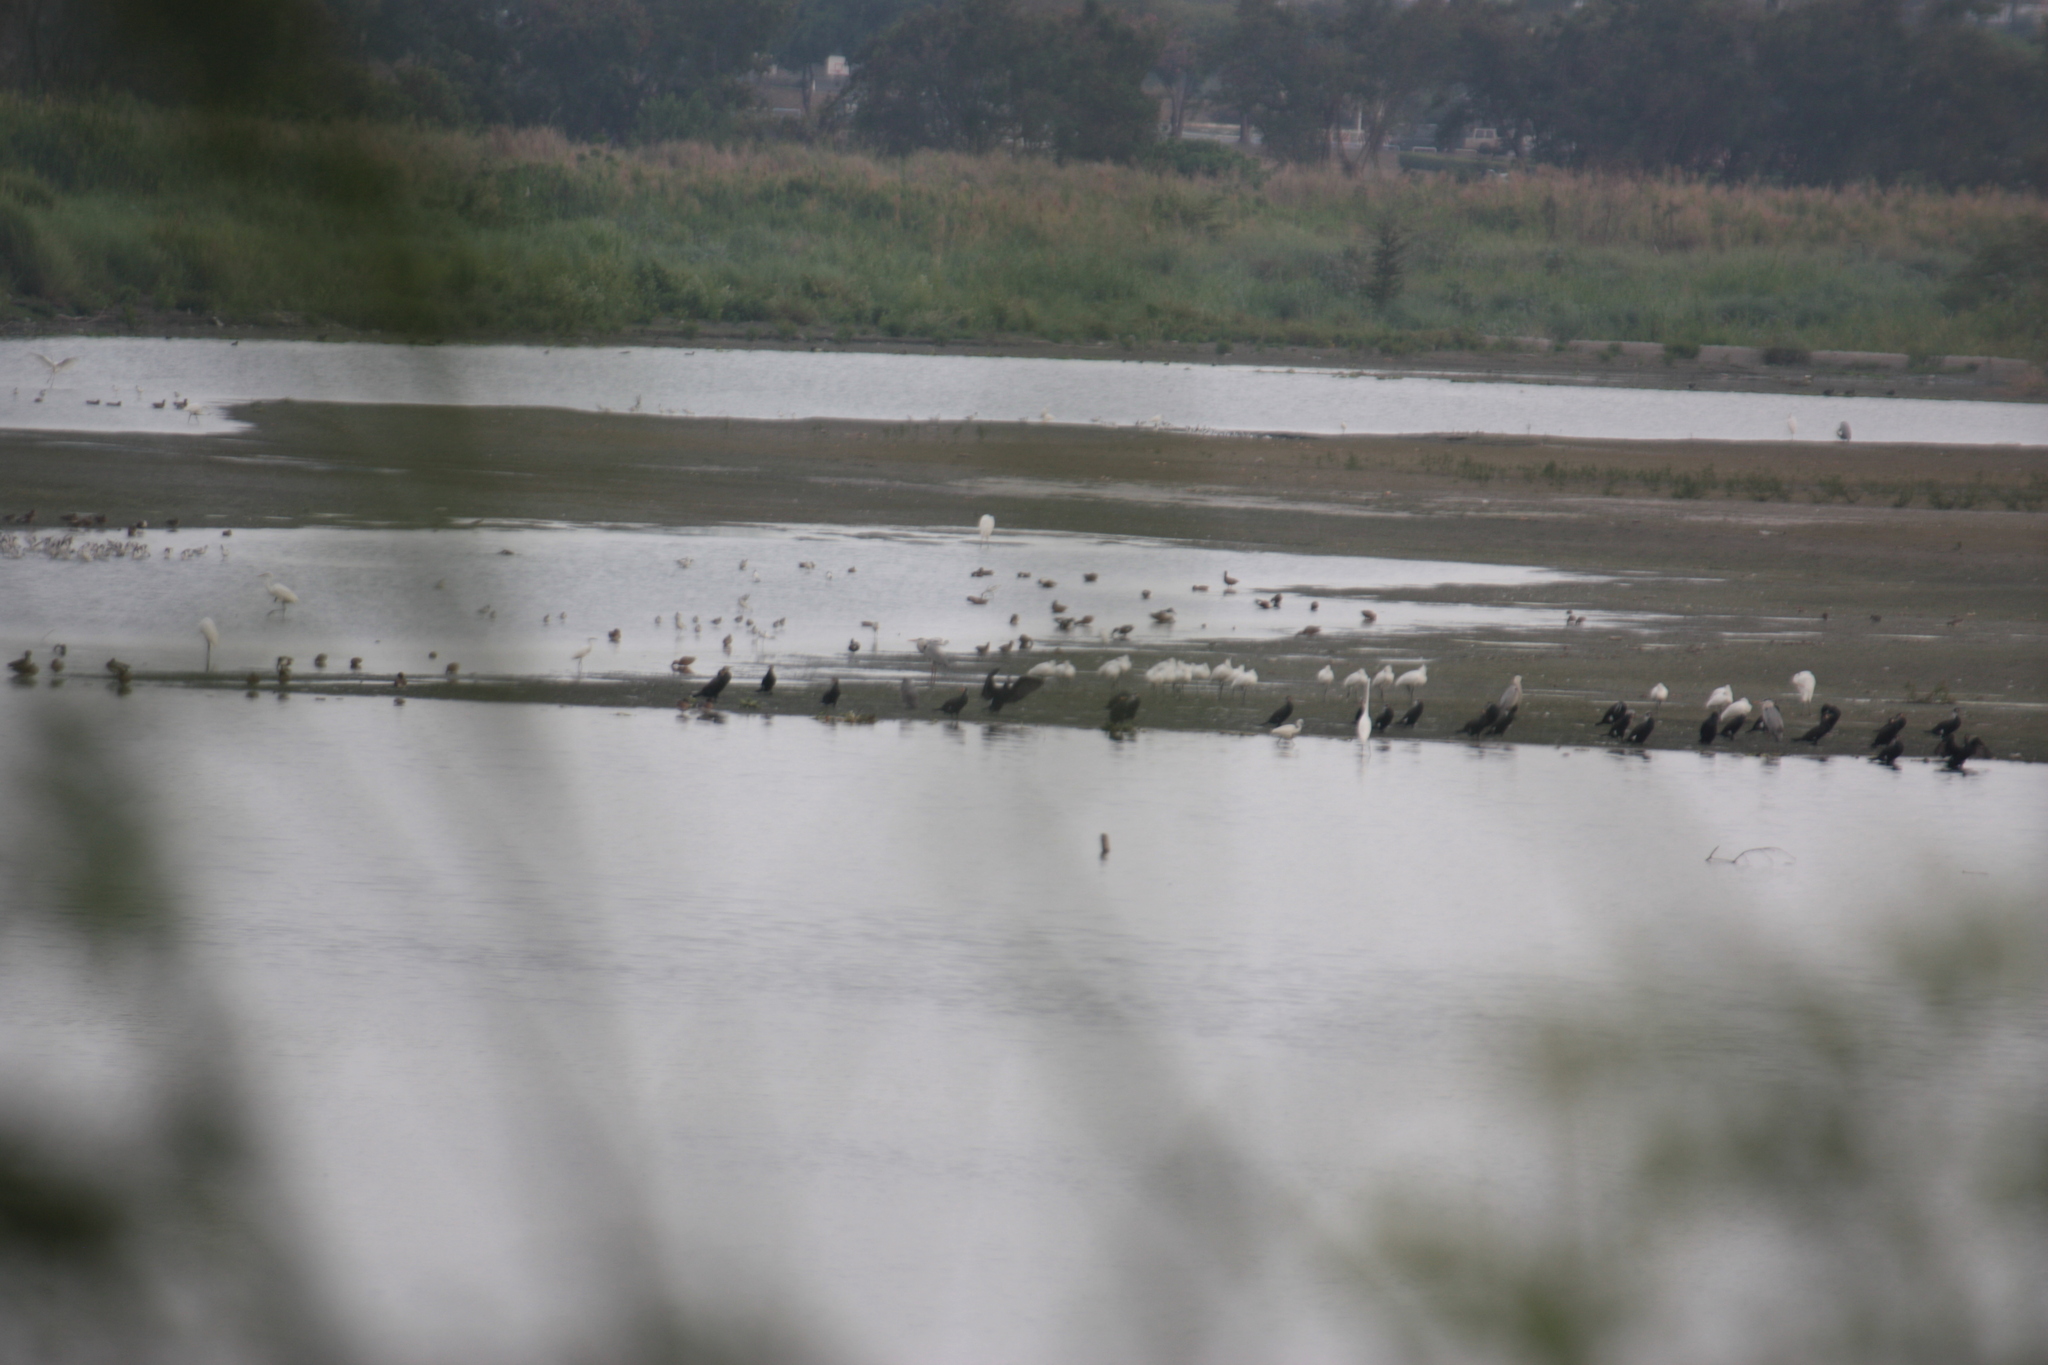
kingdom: Animalia
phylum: Chordata
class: Aves
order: Suliformes
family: Phalacrocoracidae
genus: Phalacrocorax
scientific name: Phalacrocorax carbo
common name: Great cormorant
